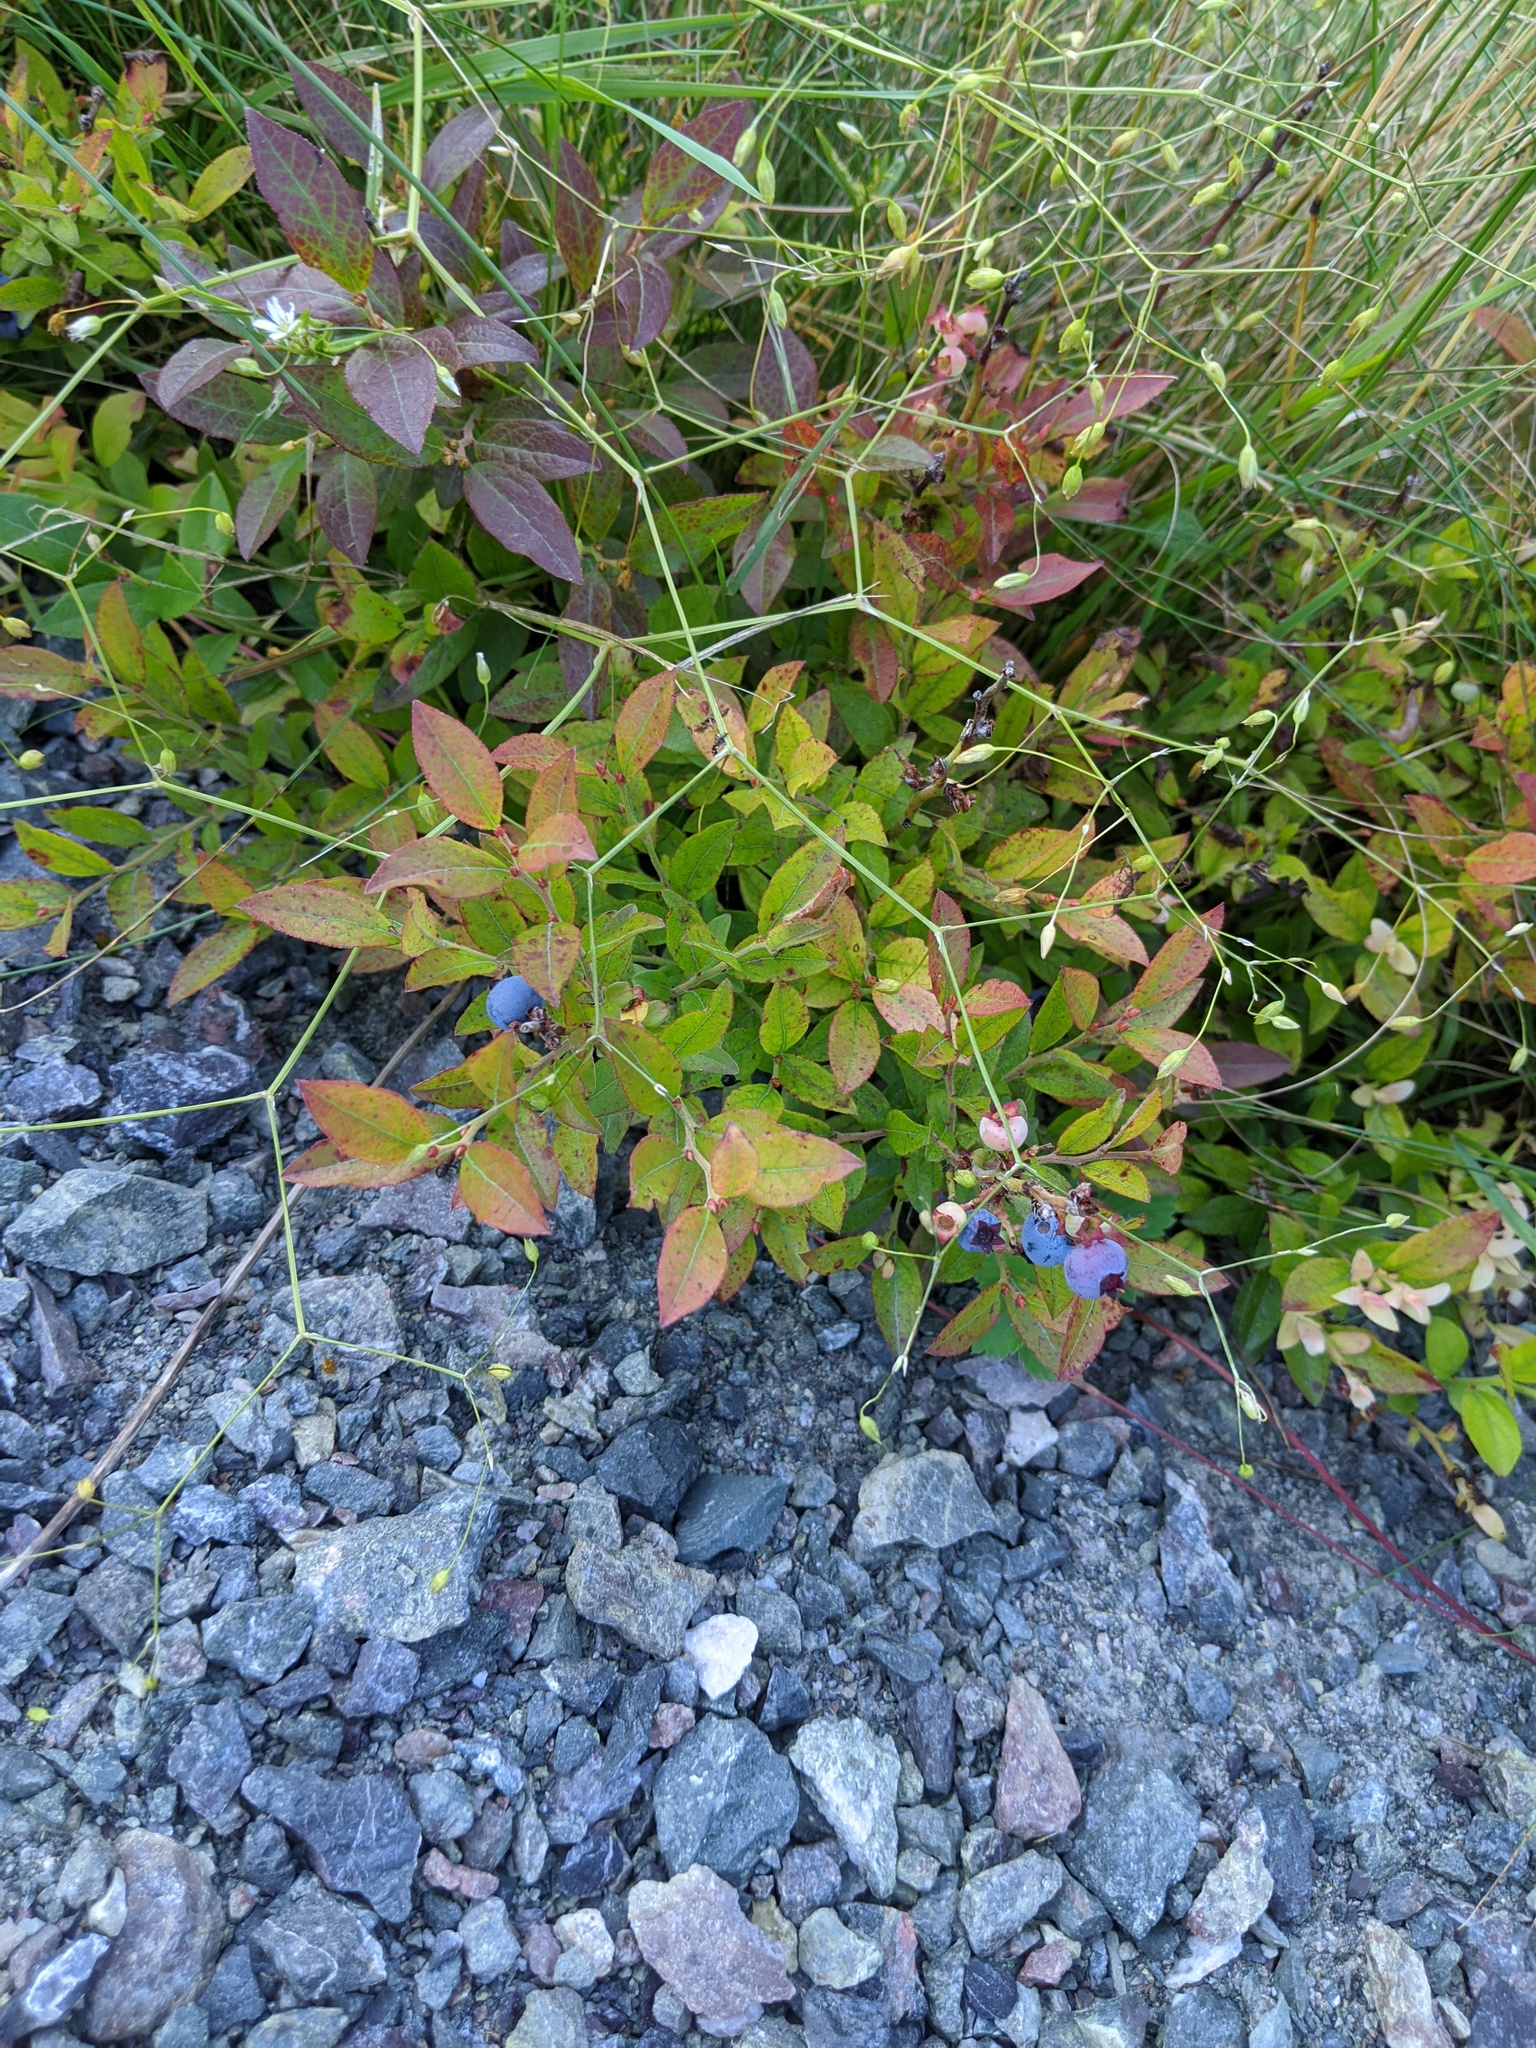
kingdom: Plantae
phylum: Tracheophyta
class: Magnoliopsida
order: Ericales
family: Ericaceae
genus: Vaccinium
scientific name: Vaccinium angustifolium
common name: Early lowbush blueberry
